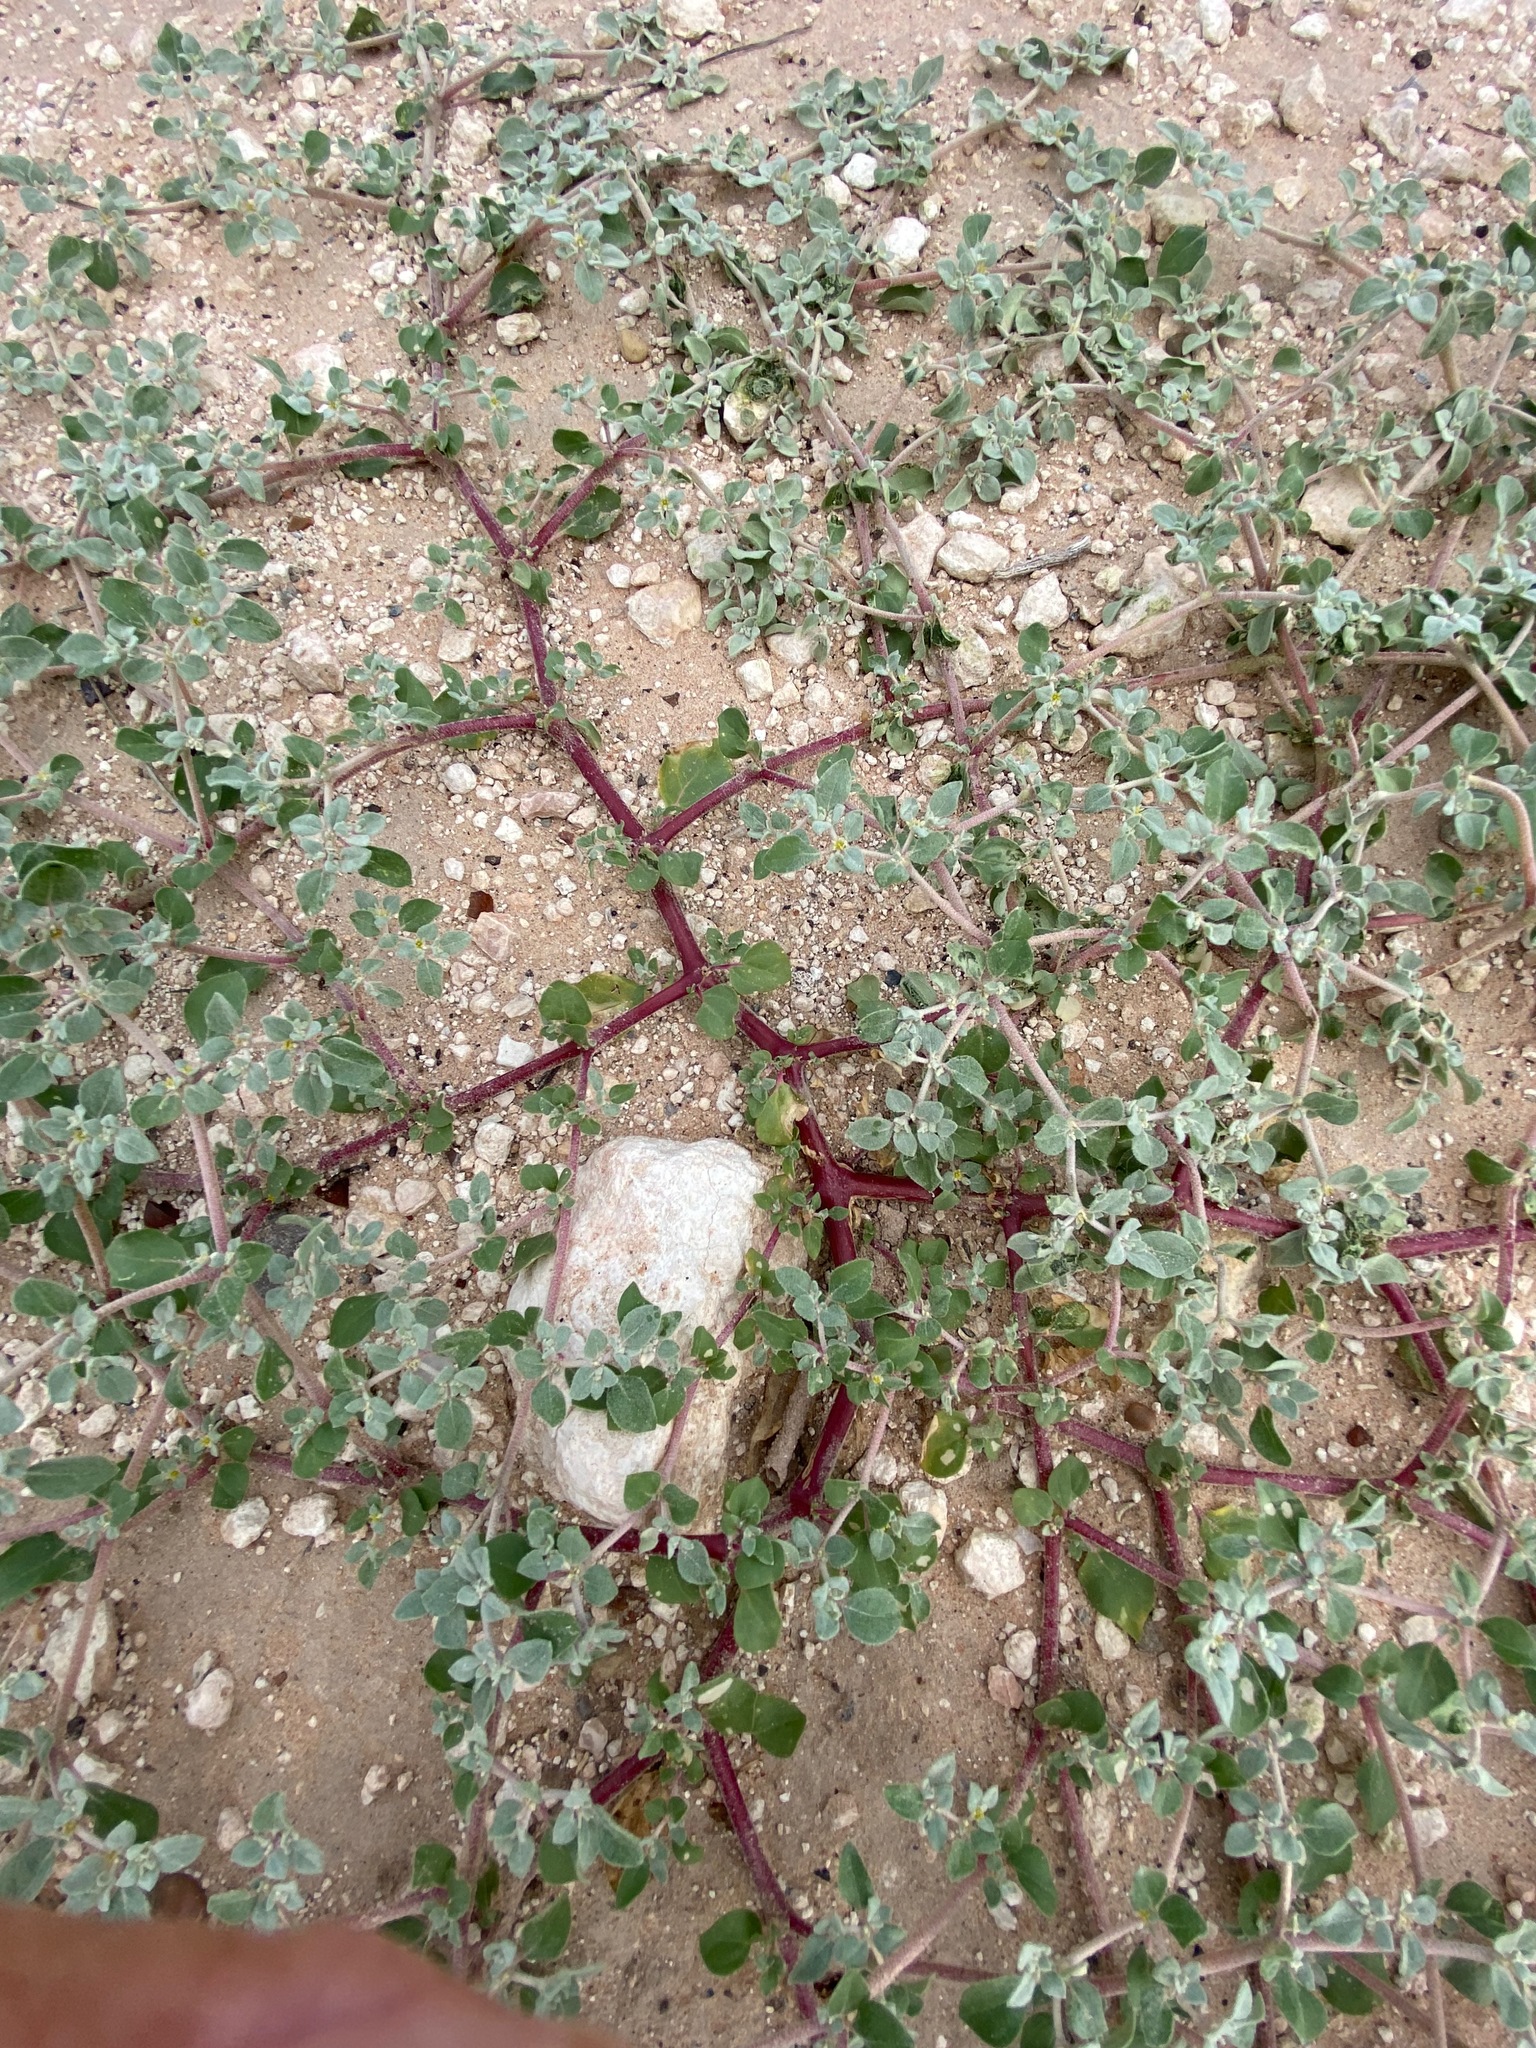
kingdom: Plantae
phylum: Tracheophyta
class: Magnoliopsida
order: Caryophyllales
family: Amaranthaceae
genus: Tidestromia
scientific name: Tidestromia lanuginosa
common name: Woolly tidestromia
